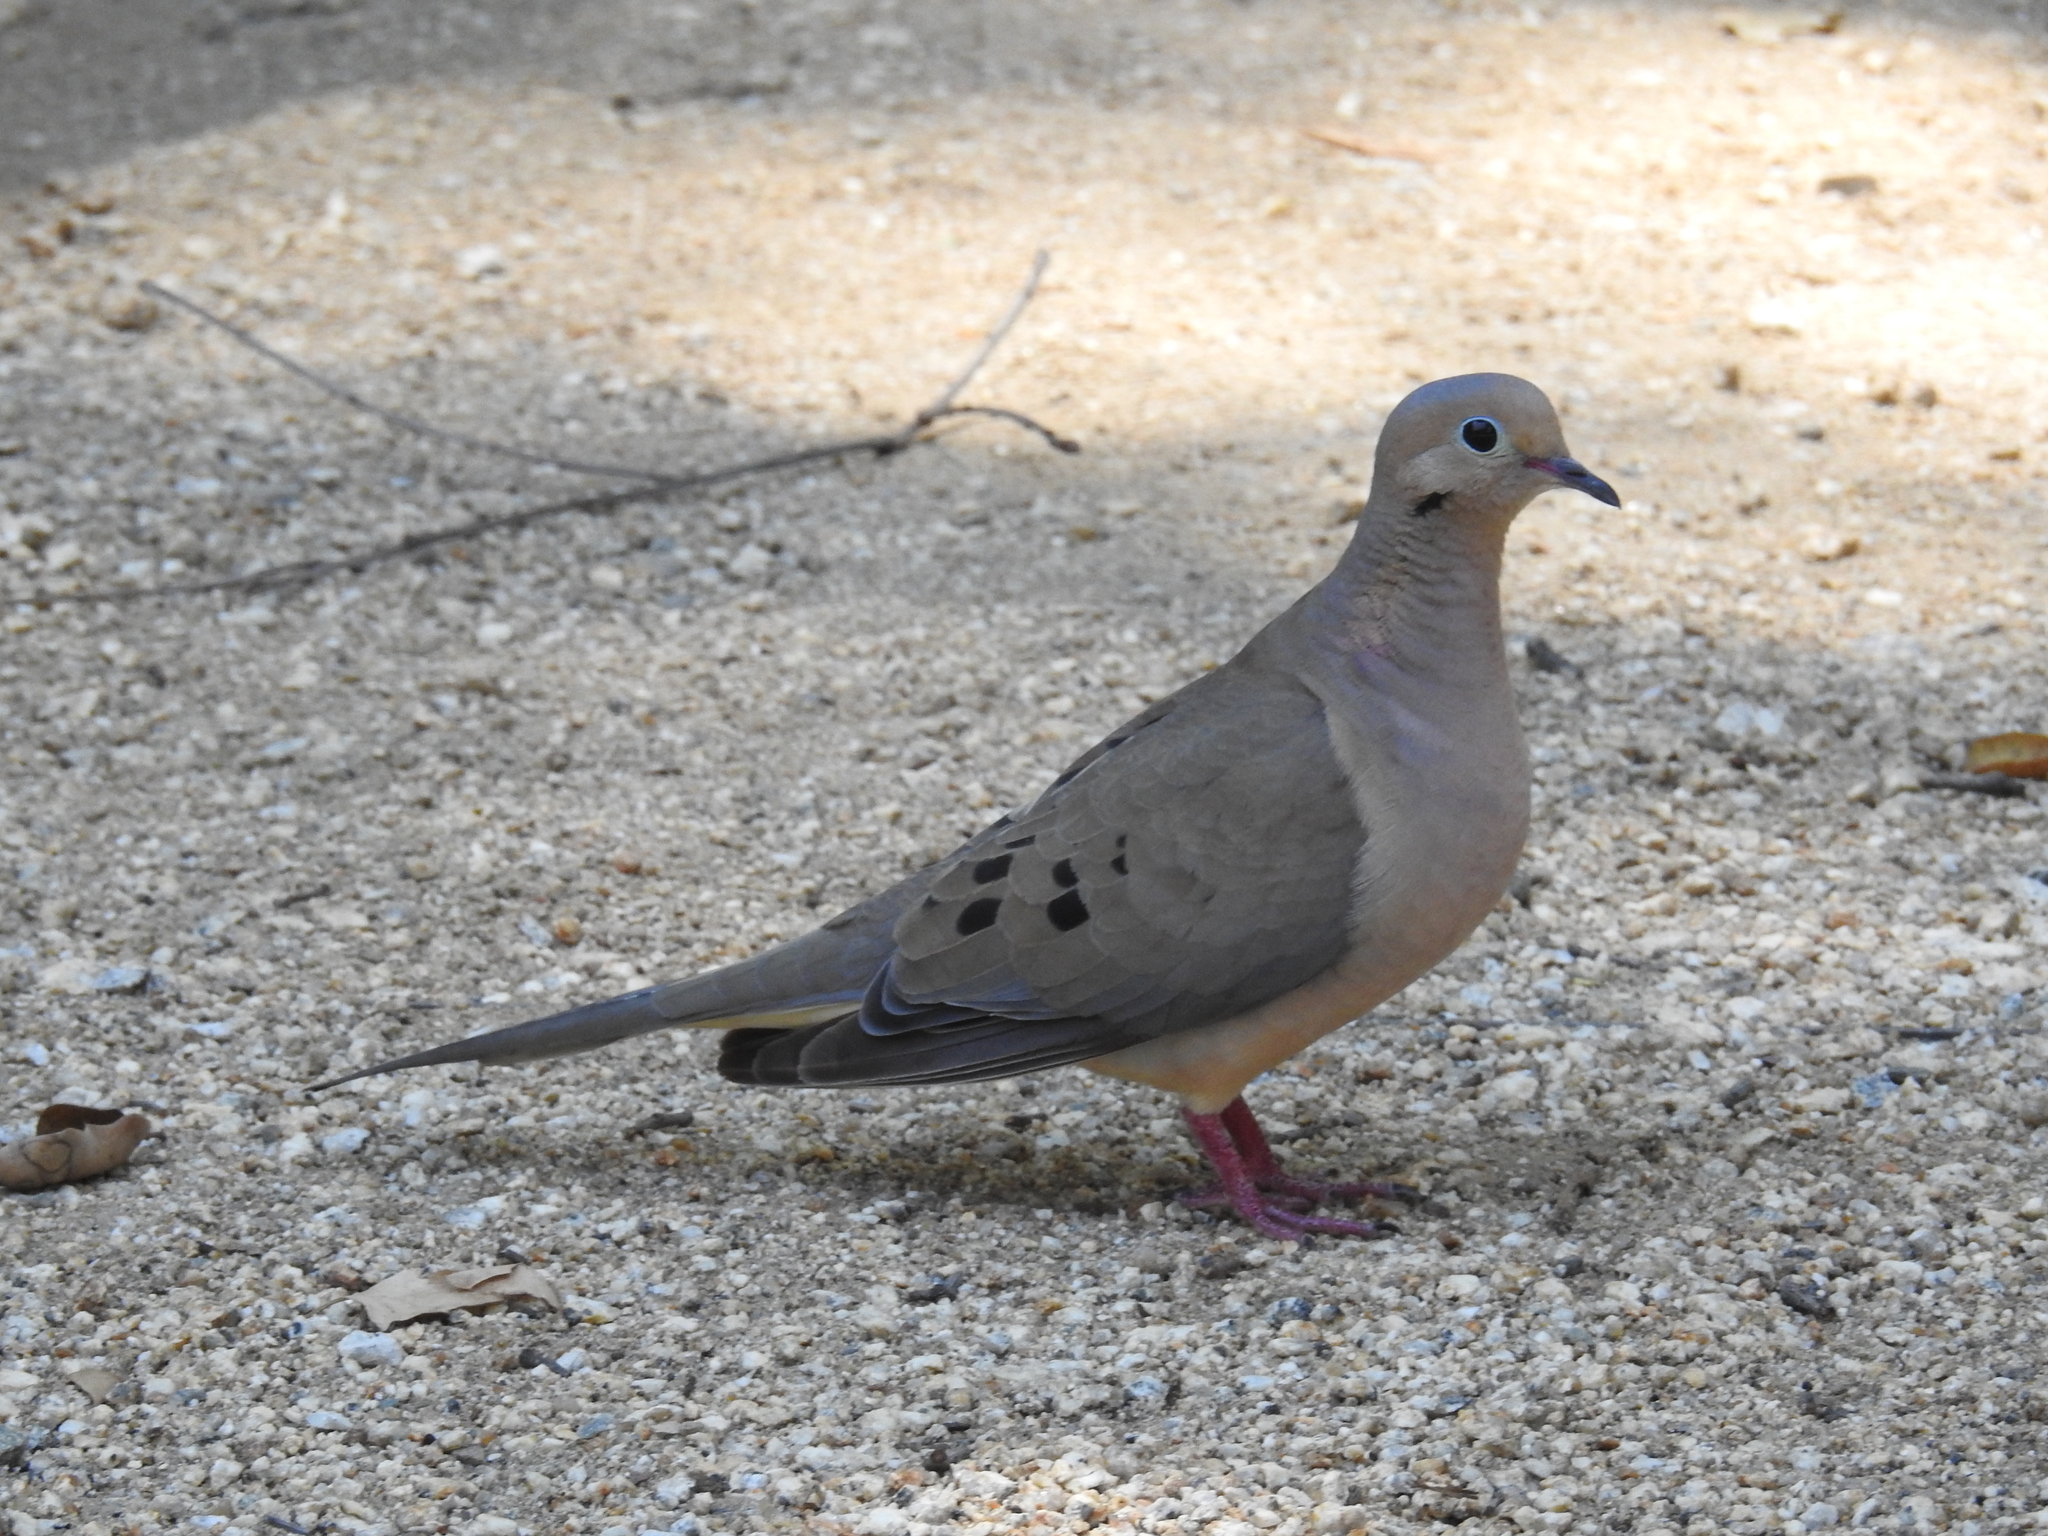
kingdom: Animalia
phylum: Chordata
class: Aves
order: Columbiformes
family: Columbidae
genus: Zenaida
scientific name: Zenaida macroura
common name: Mourning dove
